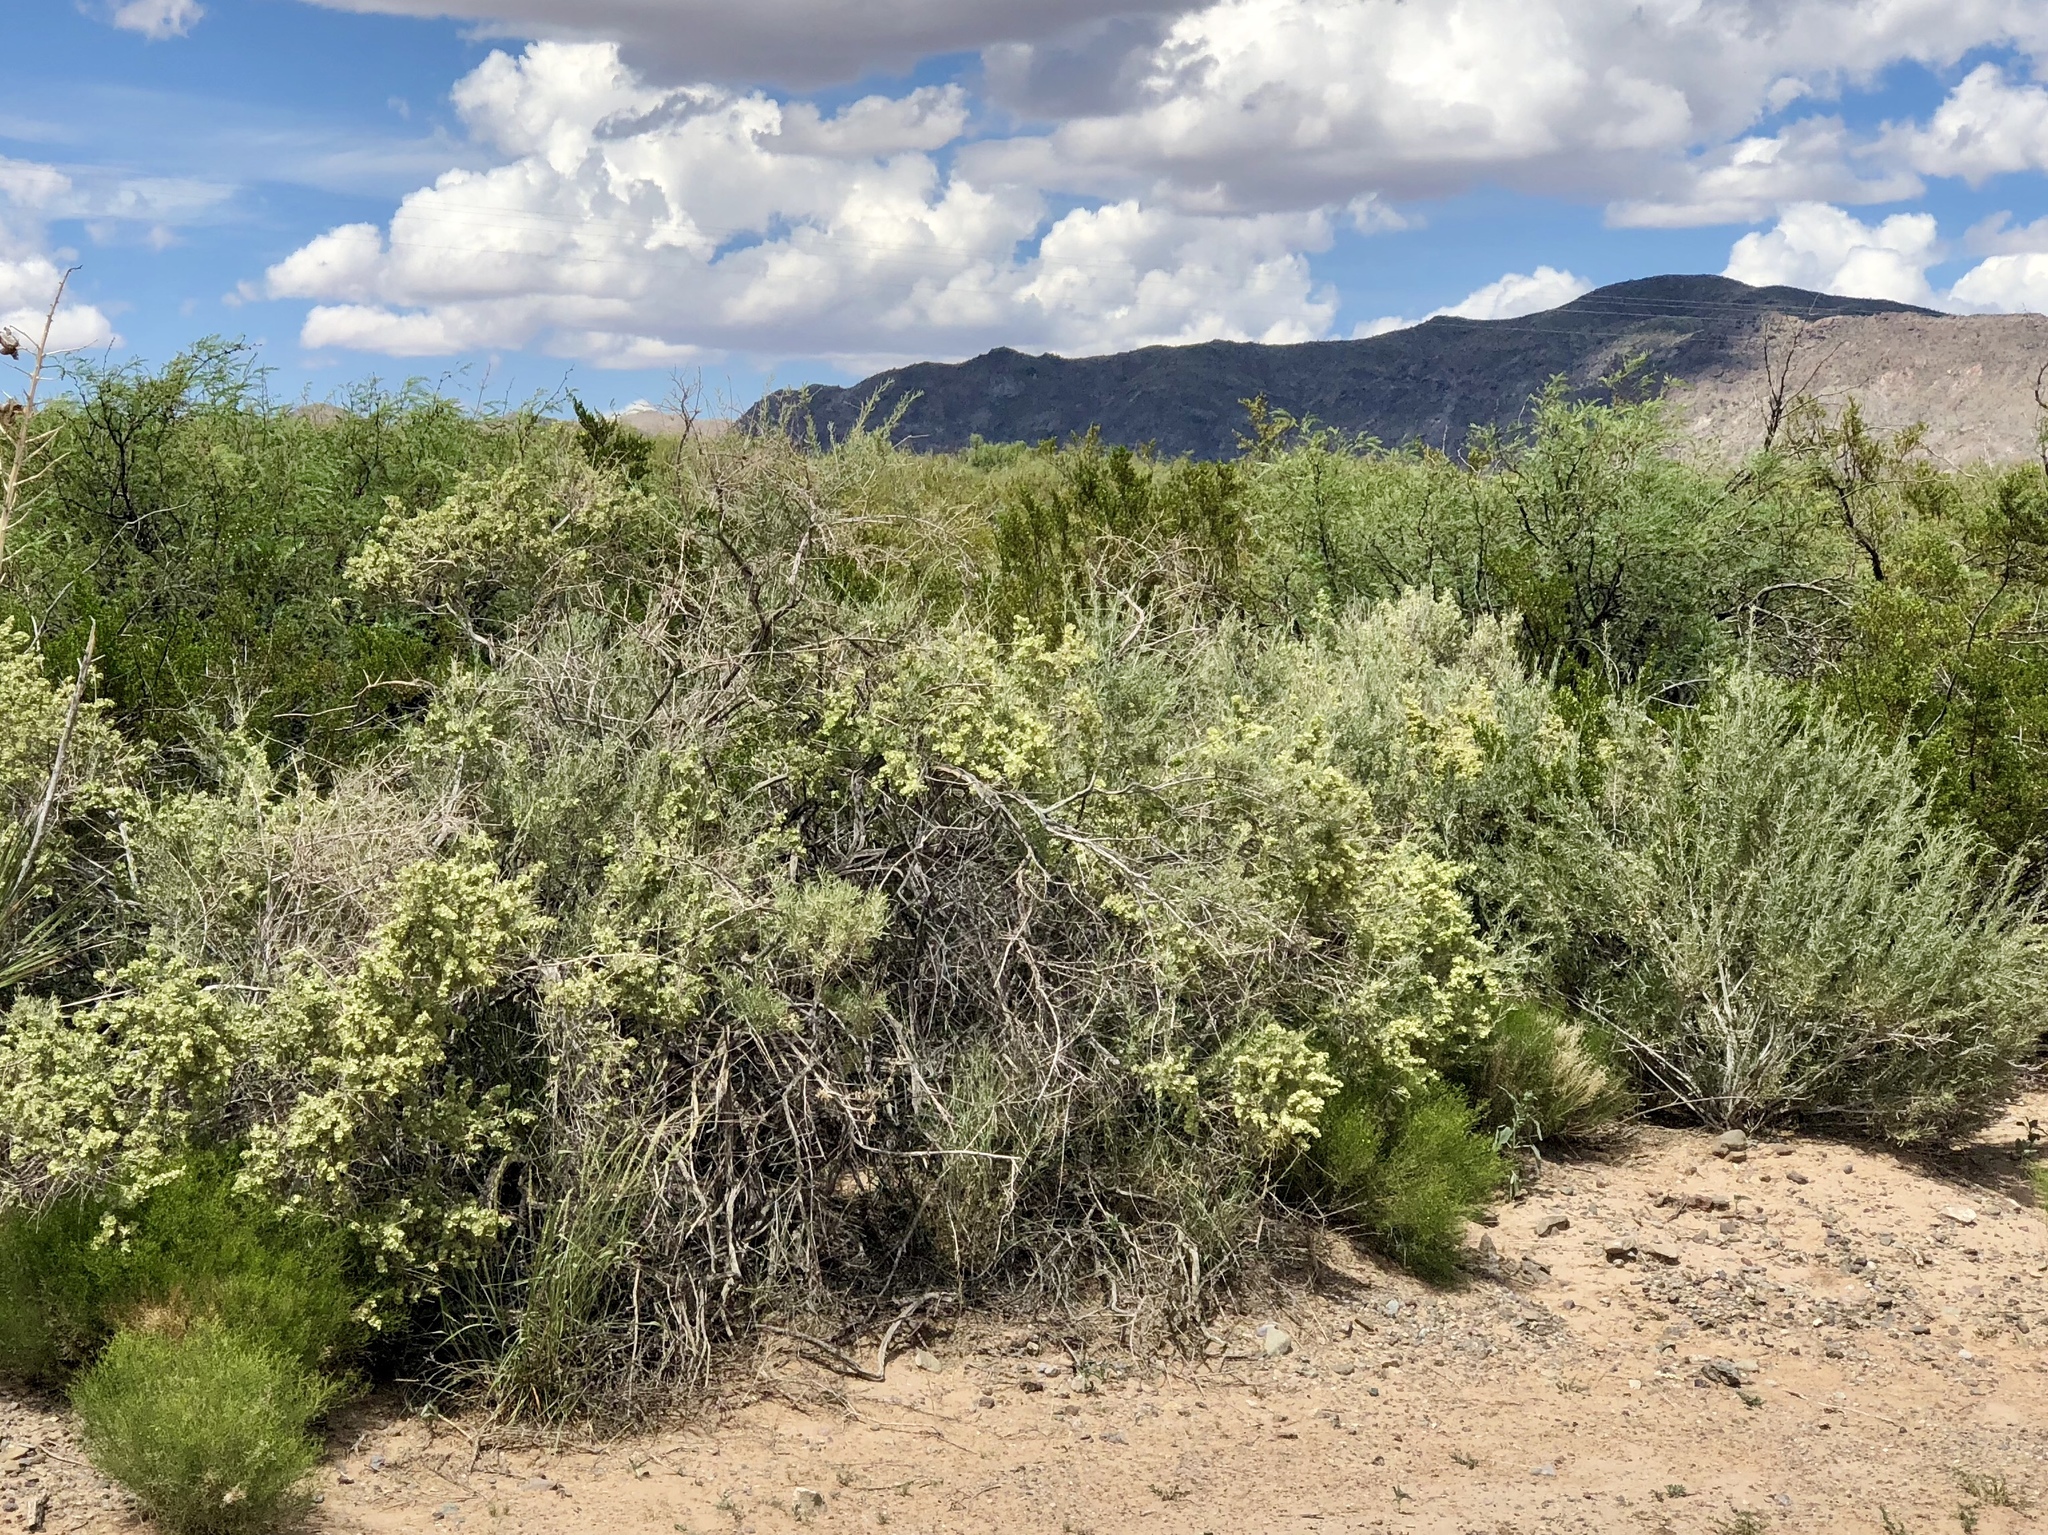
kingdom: Plantae
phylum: Tracheophyta
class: Magnoliopsida
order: Caryophyllales
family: Amaranthaceae
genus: Atriplex
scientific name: Atriplex canescens
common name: Four-wing saltbush
